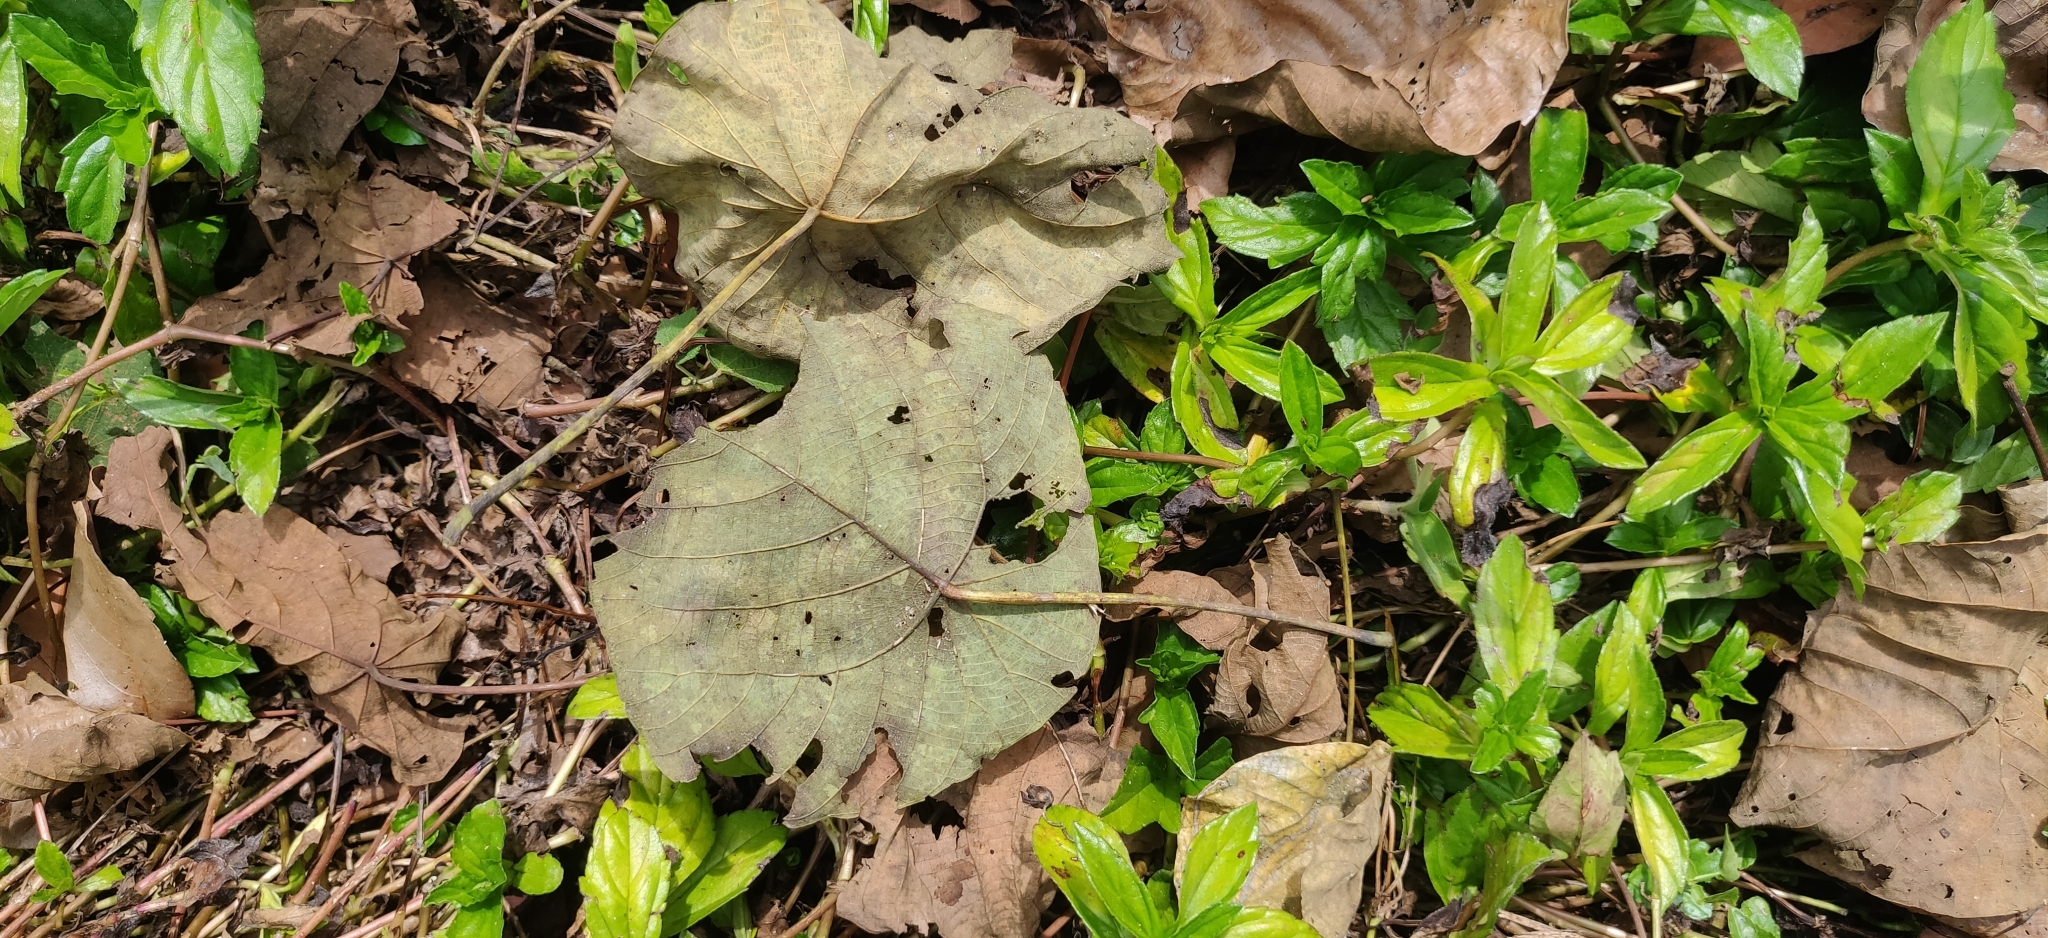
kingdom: Plantae
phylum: Tracheophyta
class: Magnoliopsida
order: Malpighiales
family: Euphorbiaceae
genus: Macaranga
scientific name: Macaranga peltata
